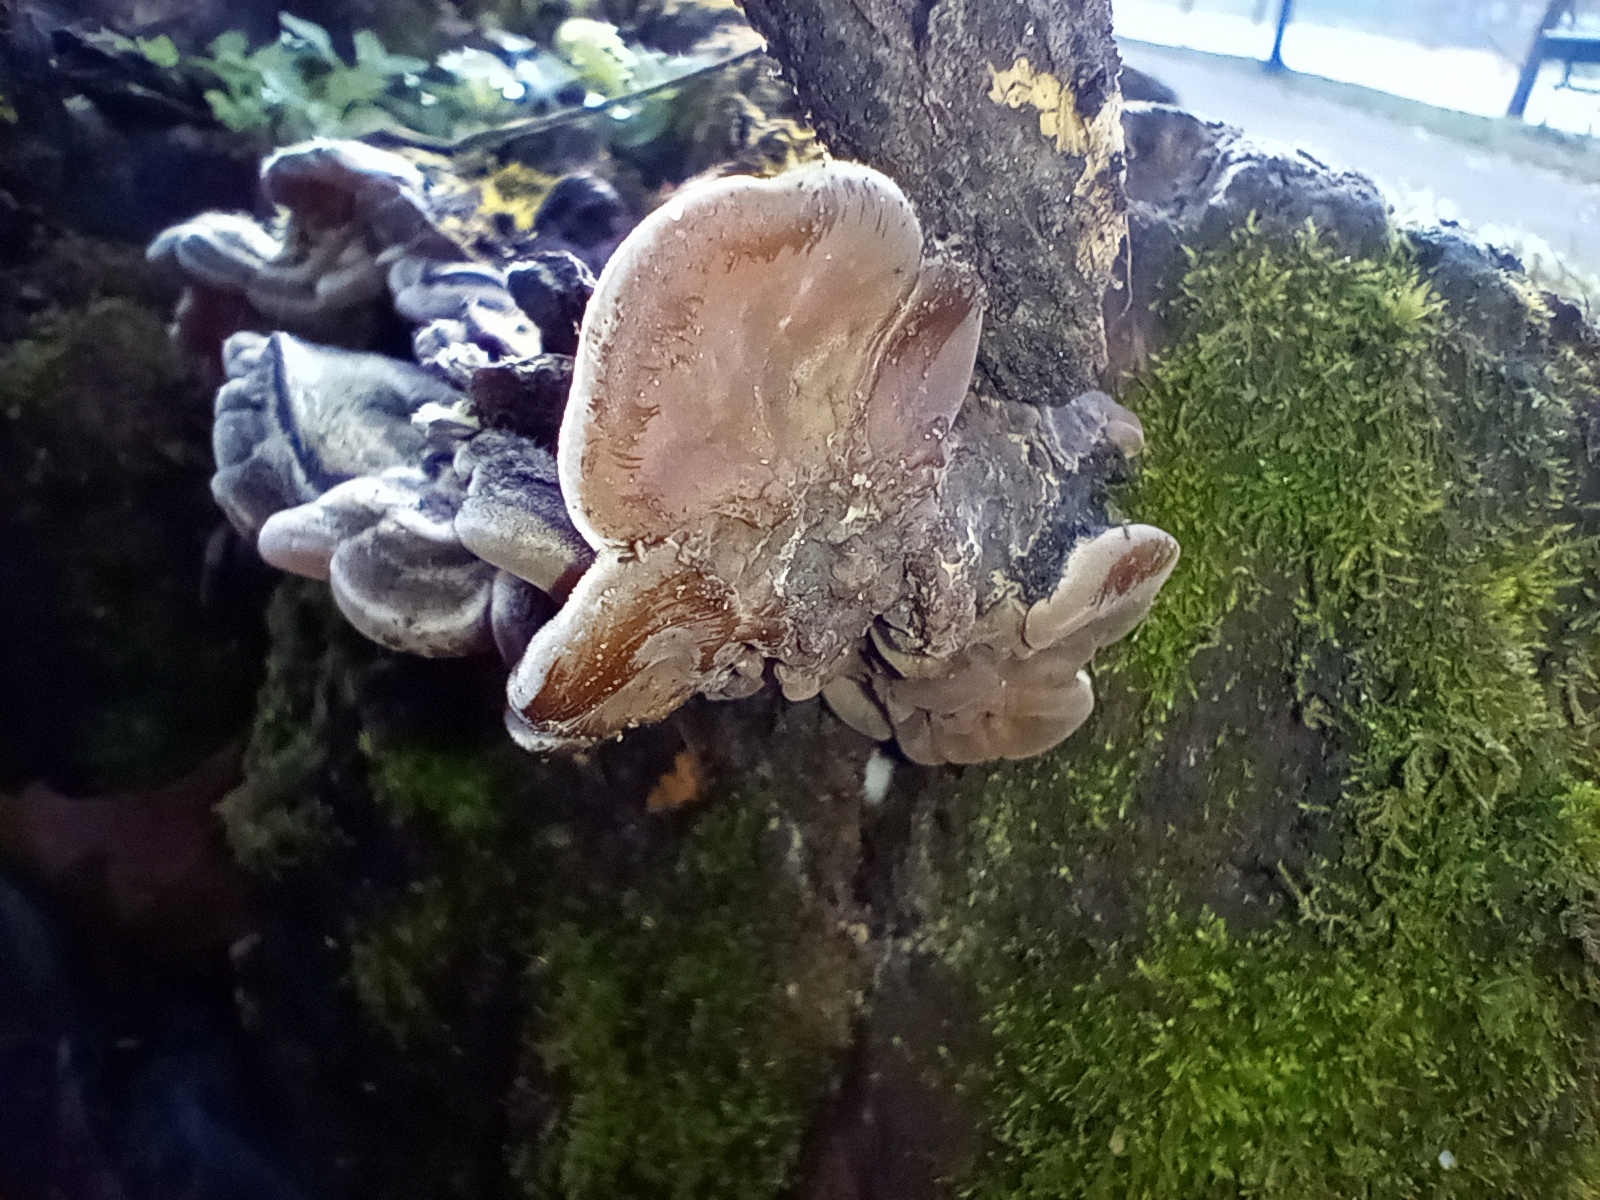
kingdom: Fungi
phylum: Basidiomycota
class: Agaricomycetes
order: Auriculariales
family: Auriculariaceae
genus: Auricularia
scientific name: Auricularia mesenterica
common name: Tripe fungus
